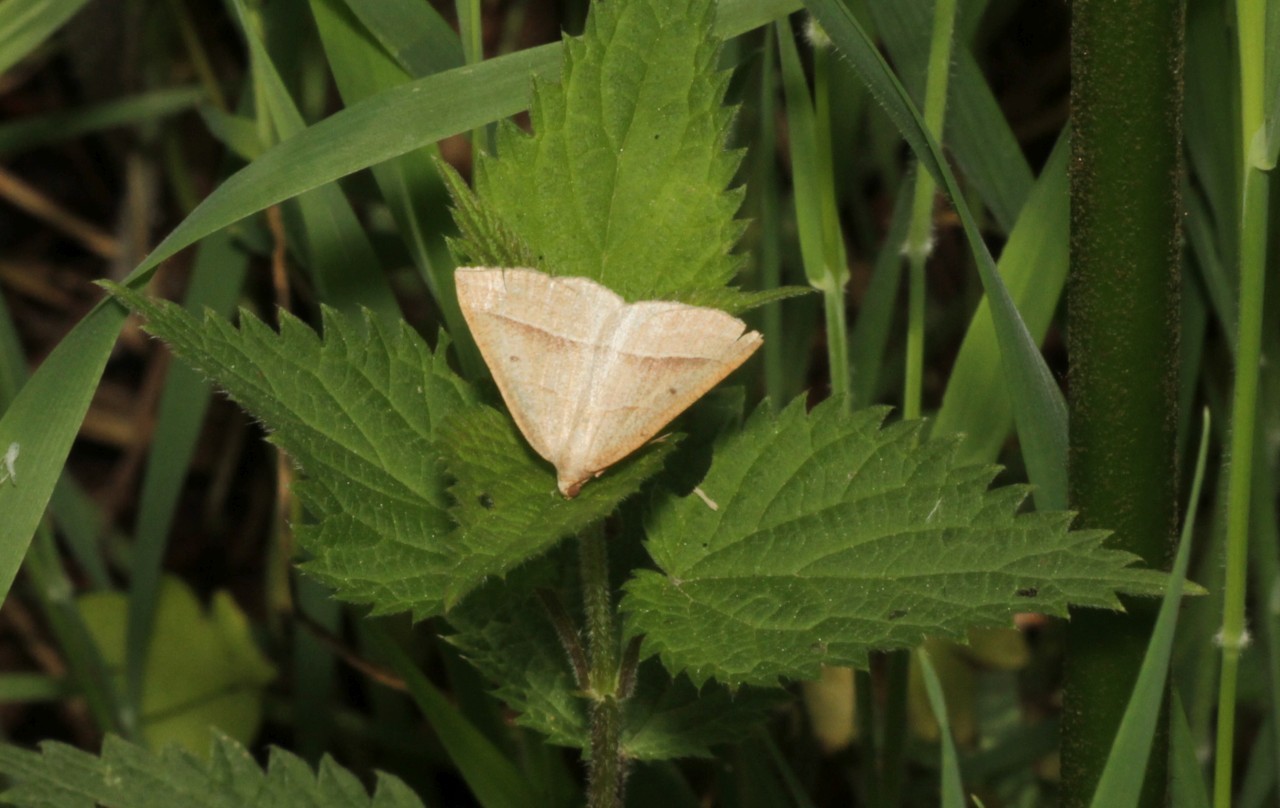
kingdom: Animalia
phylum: Arthropoda
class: Insecta
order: Lepidoptera
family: Pterophoridae
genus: Pterophorus
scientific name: Pterophorus Petrophora chlorosata
